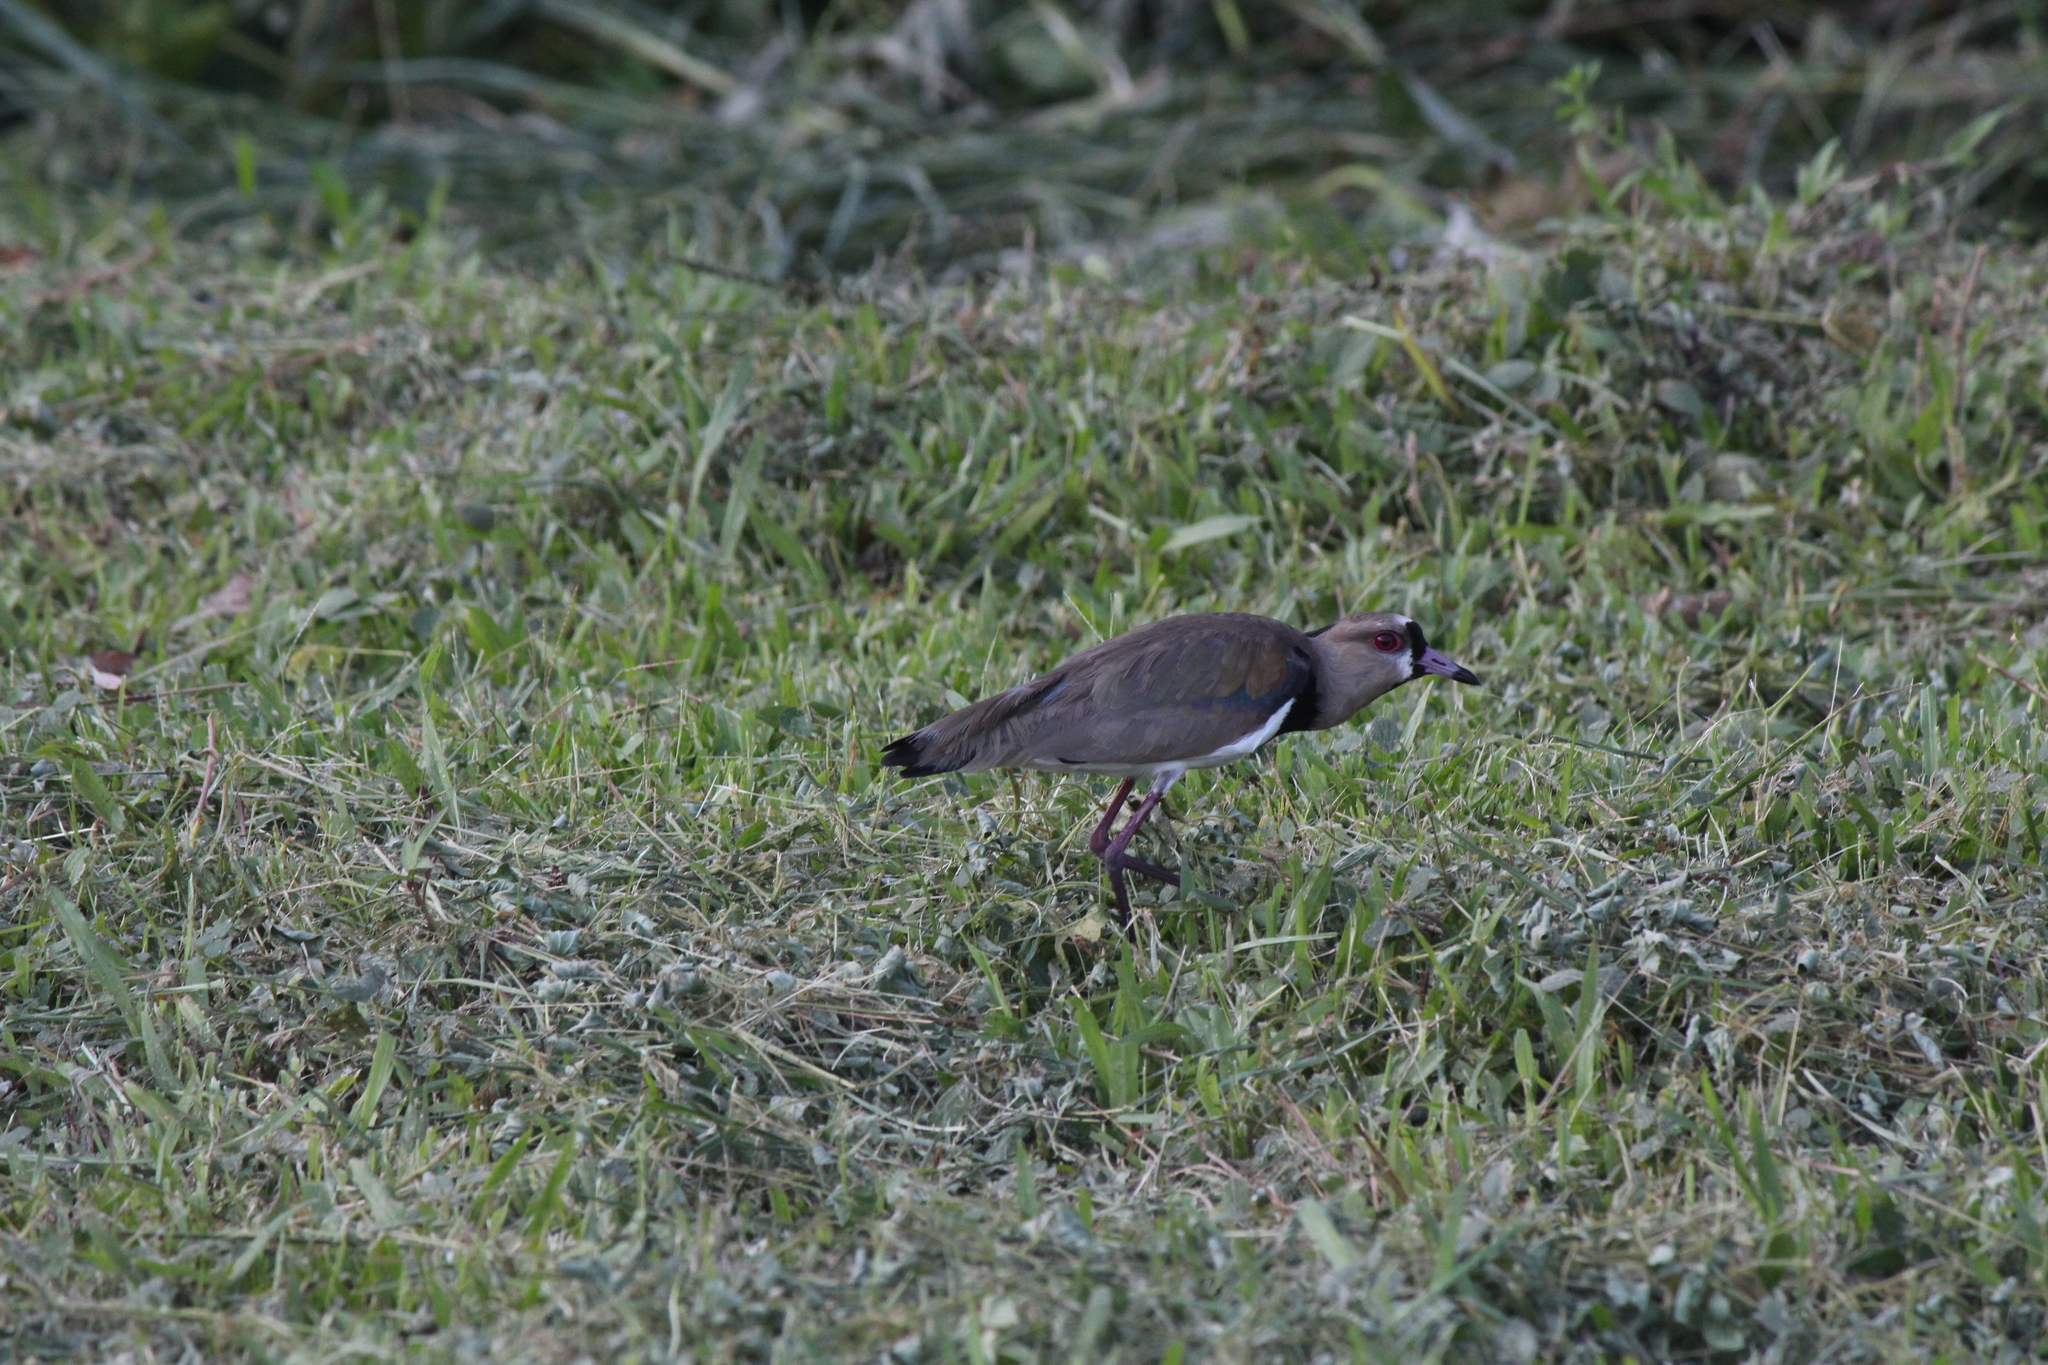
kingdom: Animalia
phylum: Chordata
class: Aves
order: Charadriiformes
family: Charadriidae
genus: Vanellus
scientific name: Vanellus chilensis
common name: Southern lapwing
